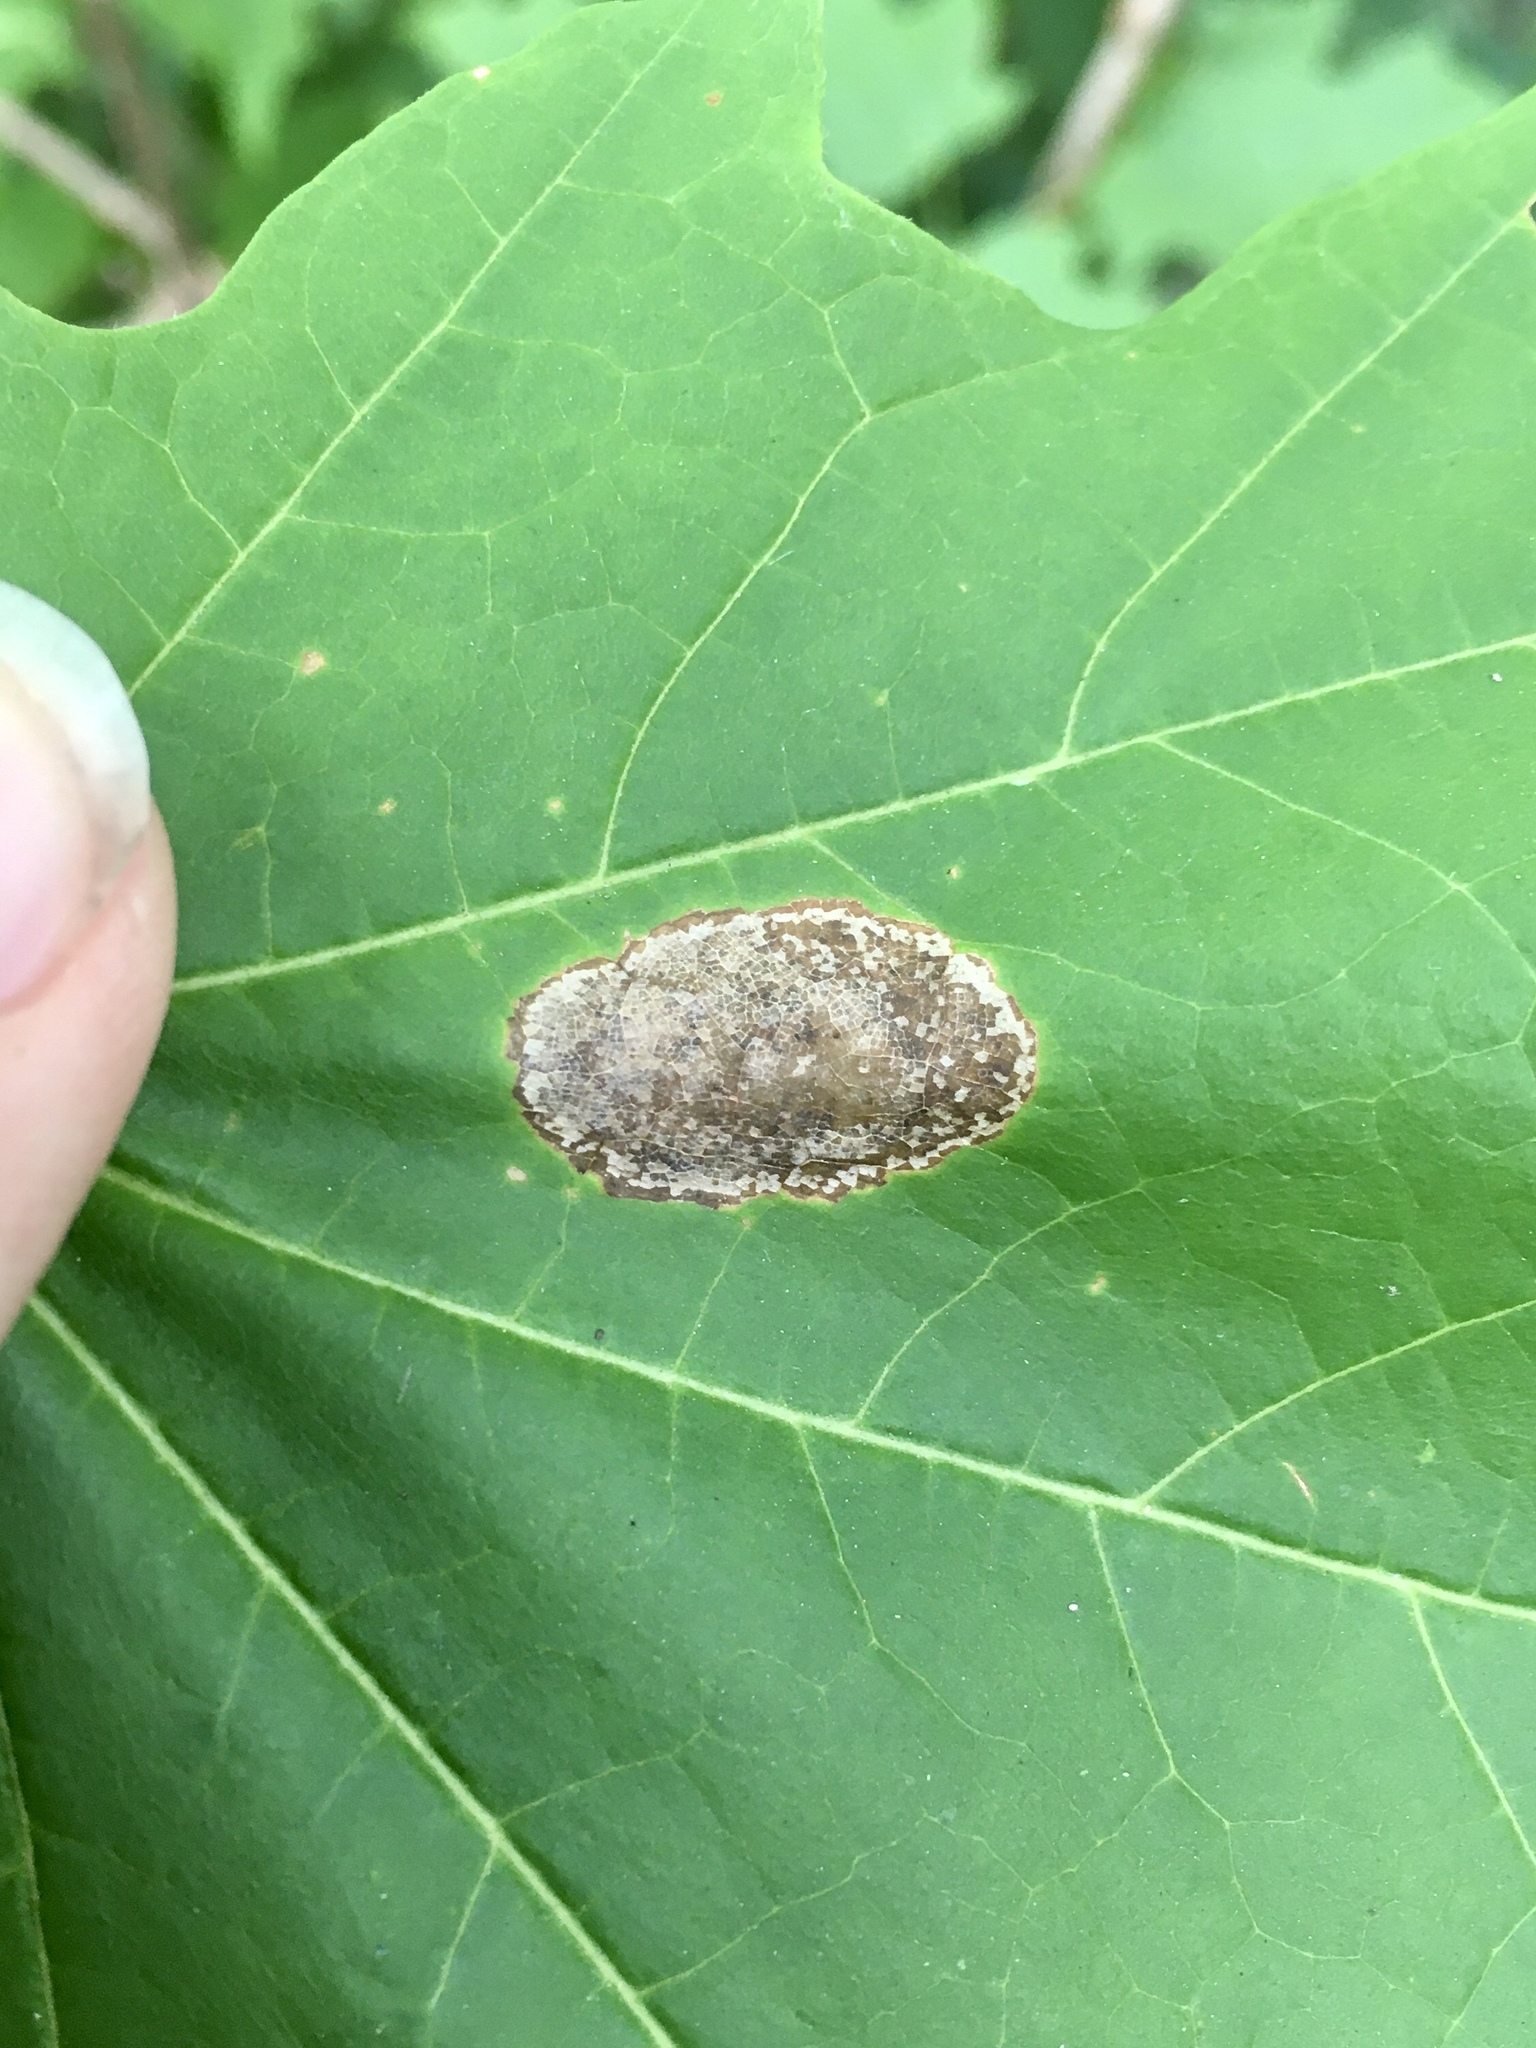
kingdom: Animalia
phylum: Arthropoda
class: Insecta
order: Lepidoptera
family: Gracillariidae
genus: Phyllonorycter
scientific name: Phyllonorycter
